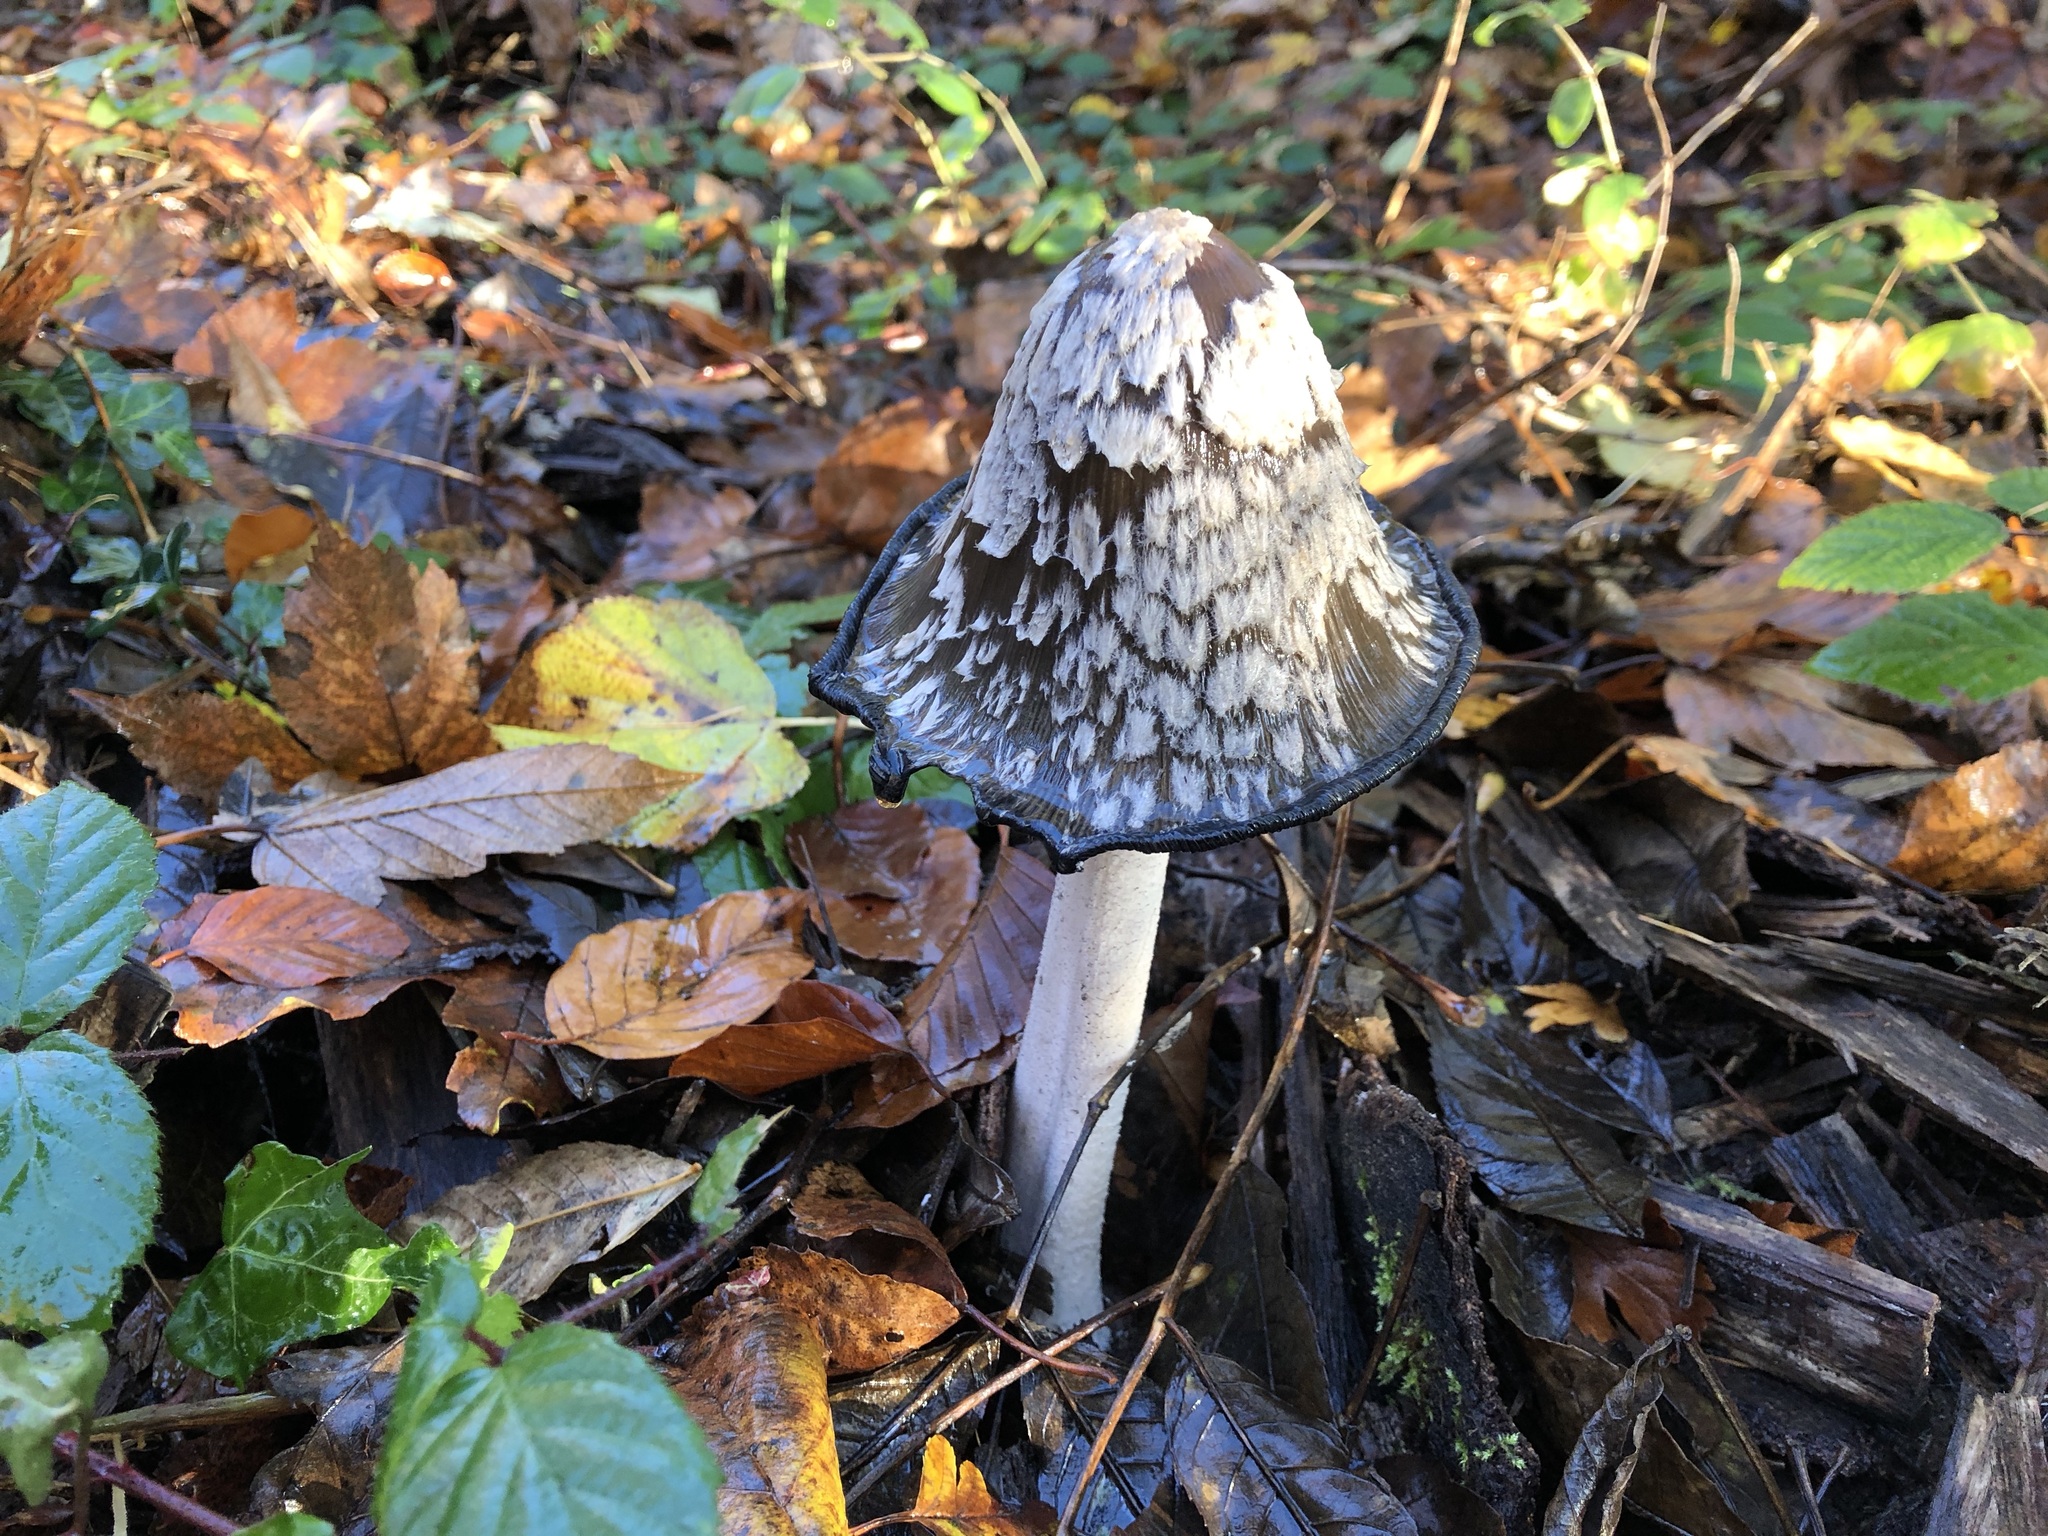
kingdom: Fungi
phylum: Basidiomycota
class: Agaricomycetes
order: Agaricales
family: Psathyrellaceae
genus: Coprinopsis
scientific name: Coprinopsis picacea
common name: Magpie inkcap
